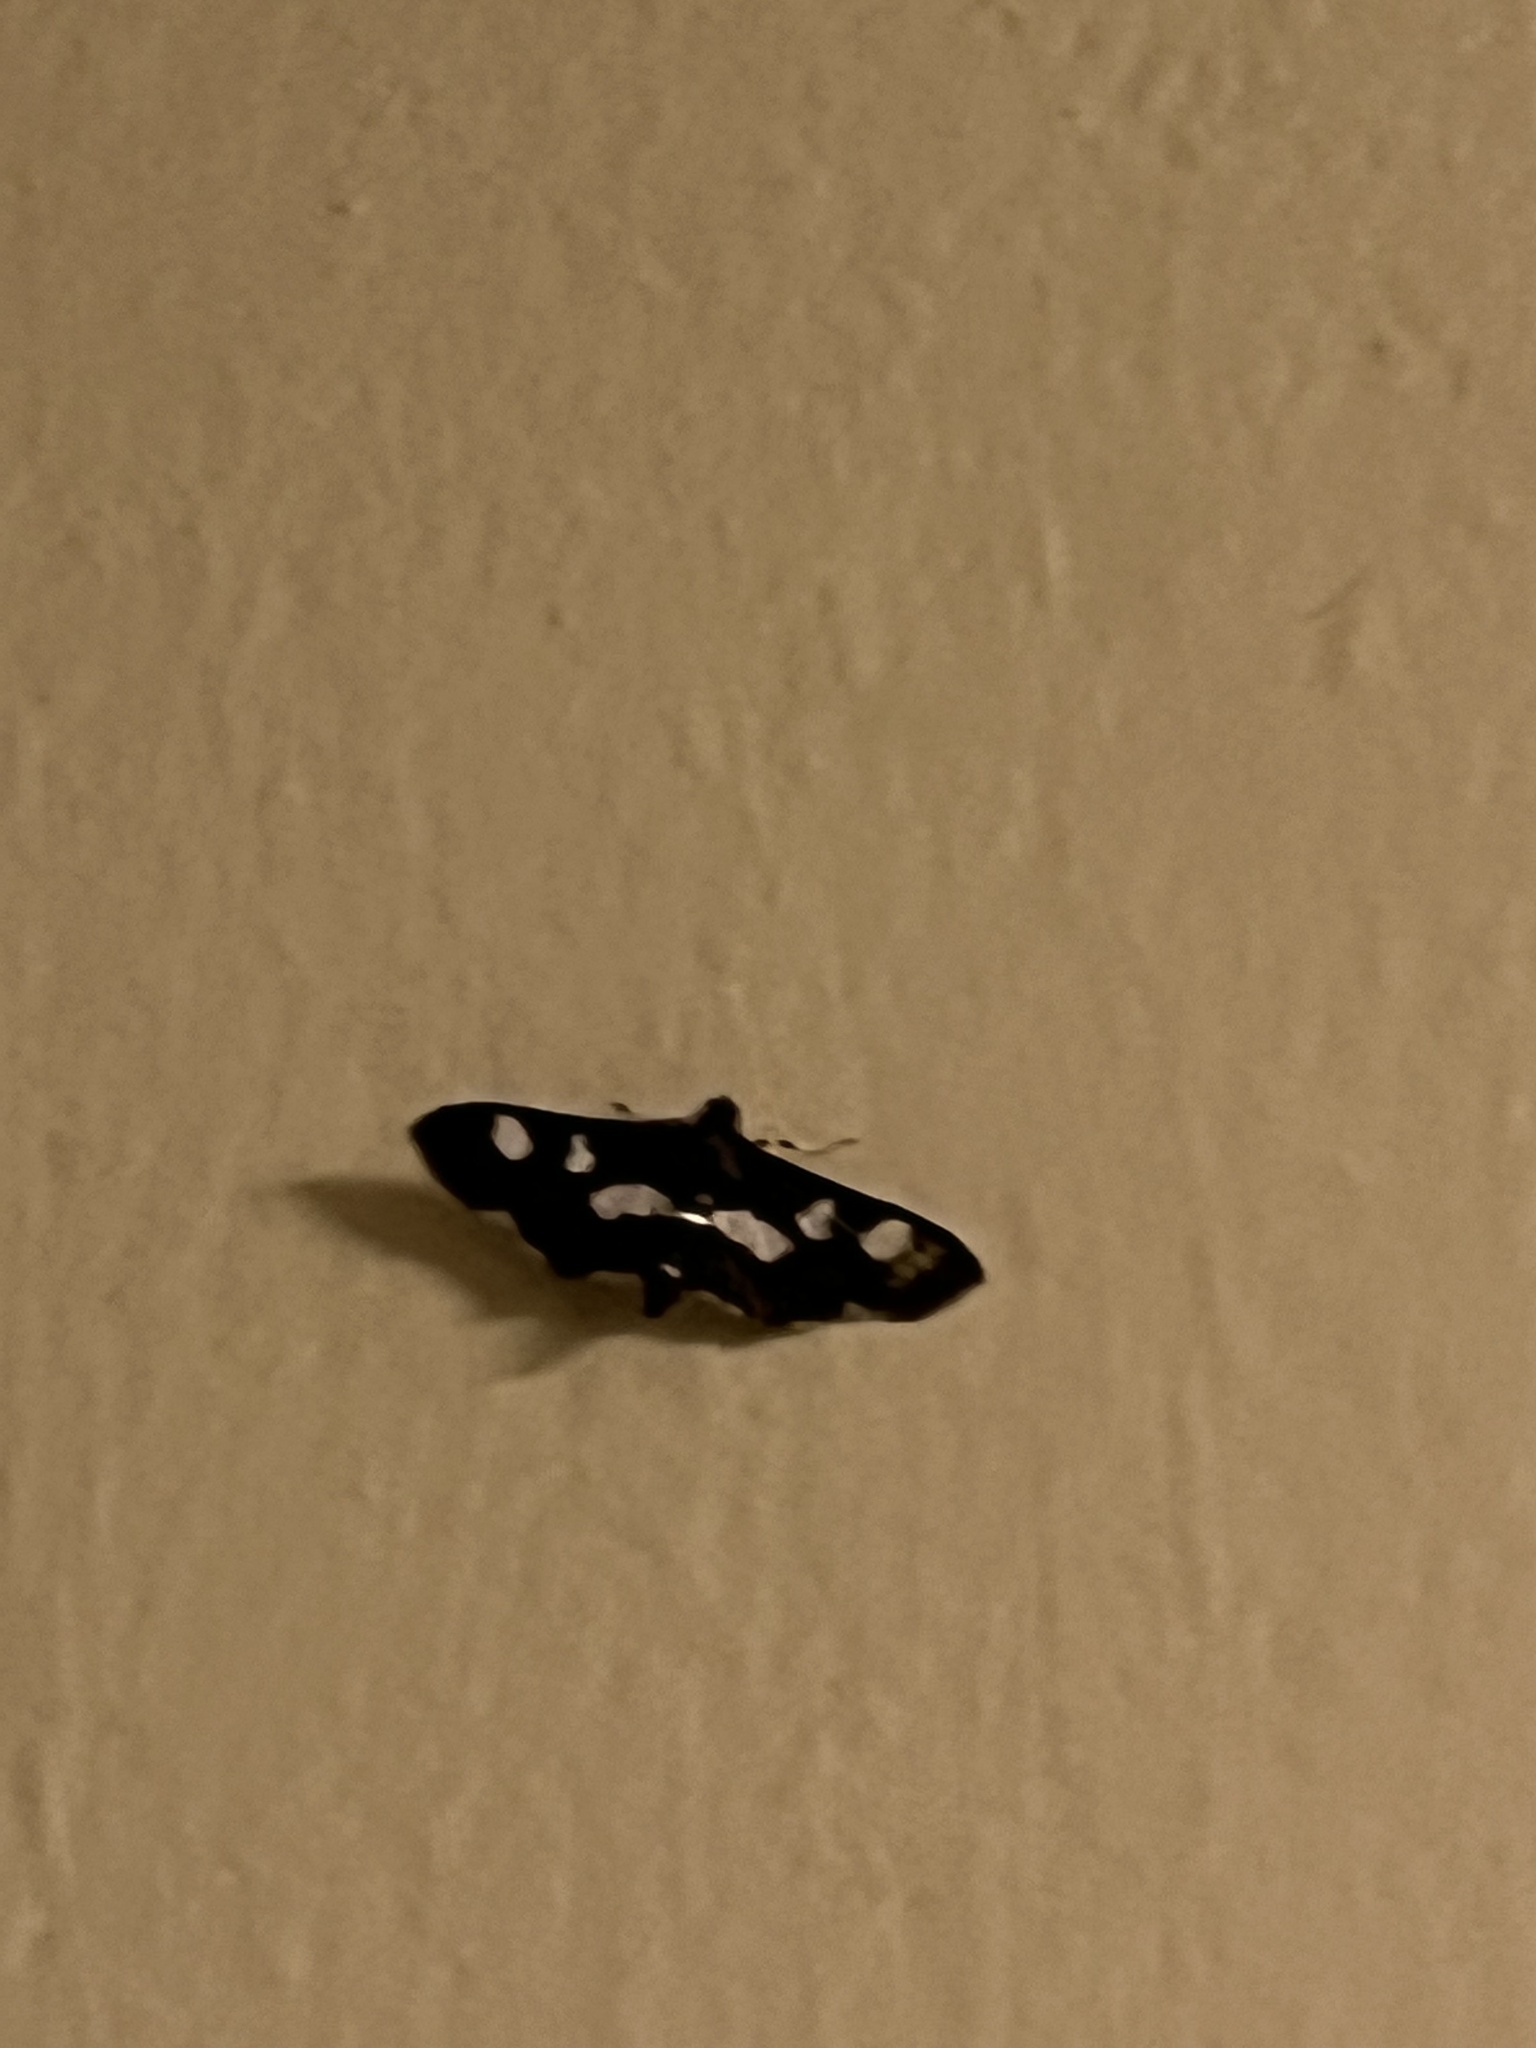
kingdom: Animalia
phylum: Arthropoda
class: Insecta
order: Lepidoptera
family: Crambidae
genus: Desmia
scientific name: Desmia funeralis
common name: Grape leaf folder moth
